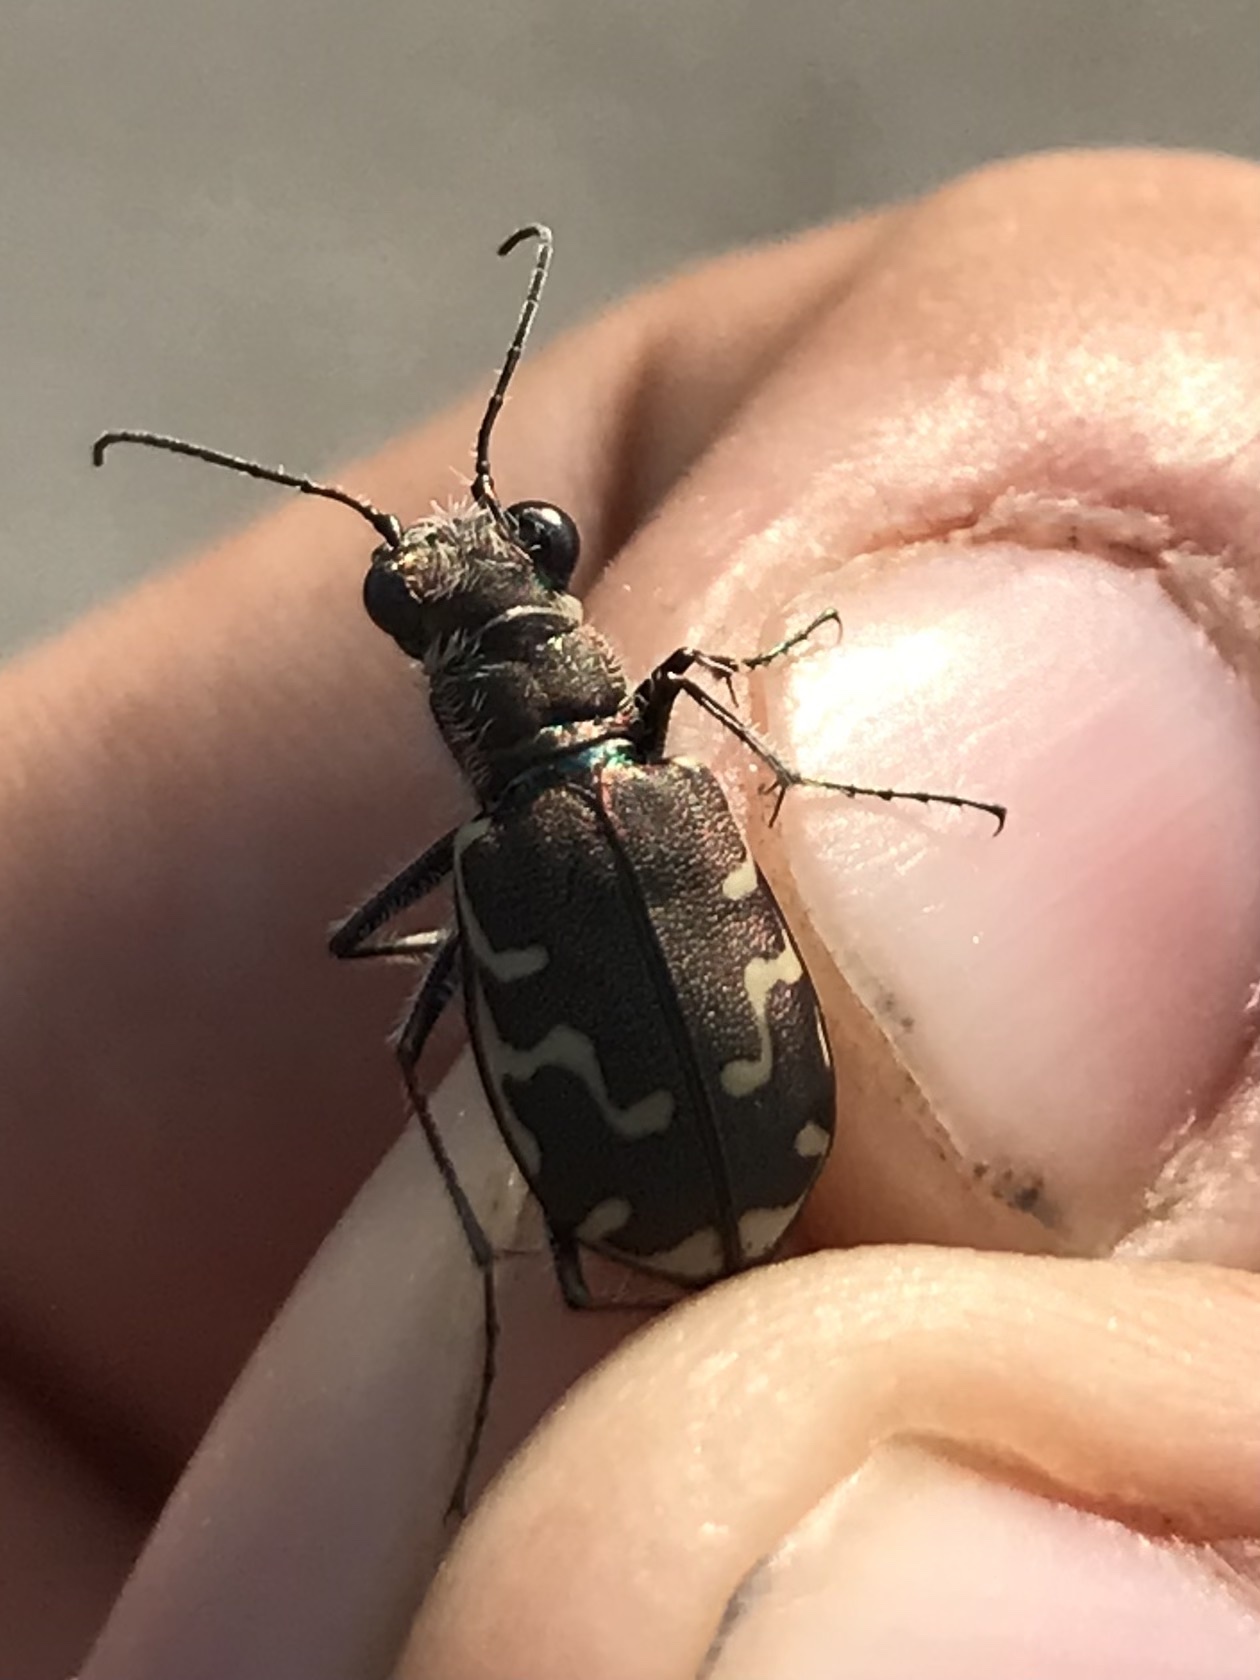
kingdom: Animalia
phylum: Arthropoda
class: Insecta
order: Coleoptera
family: Carabidae
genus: Cicindela
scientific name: Cicindela repanda
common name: Bronzed tiger beetle
